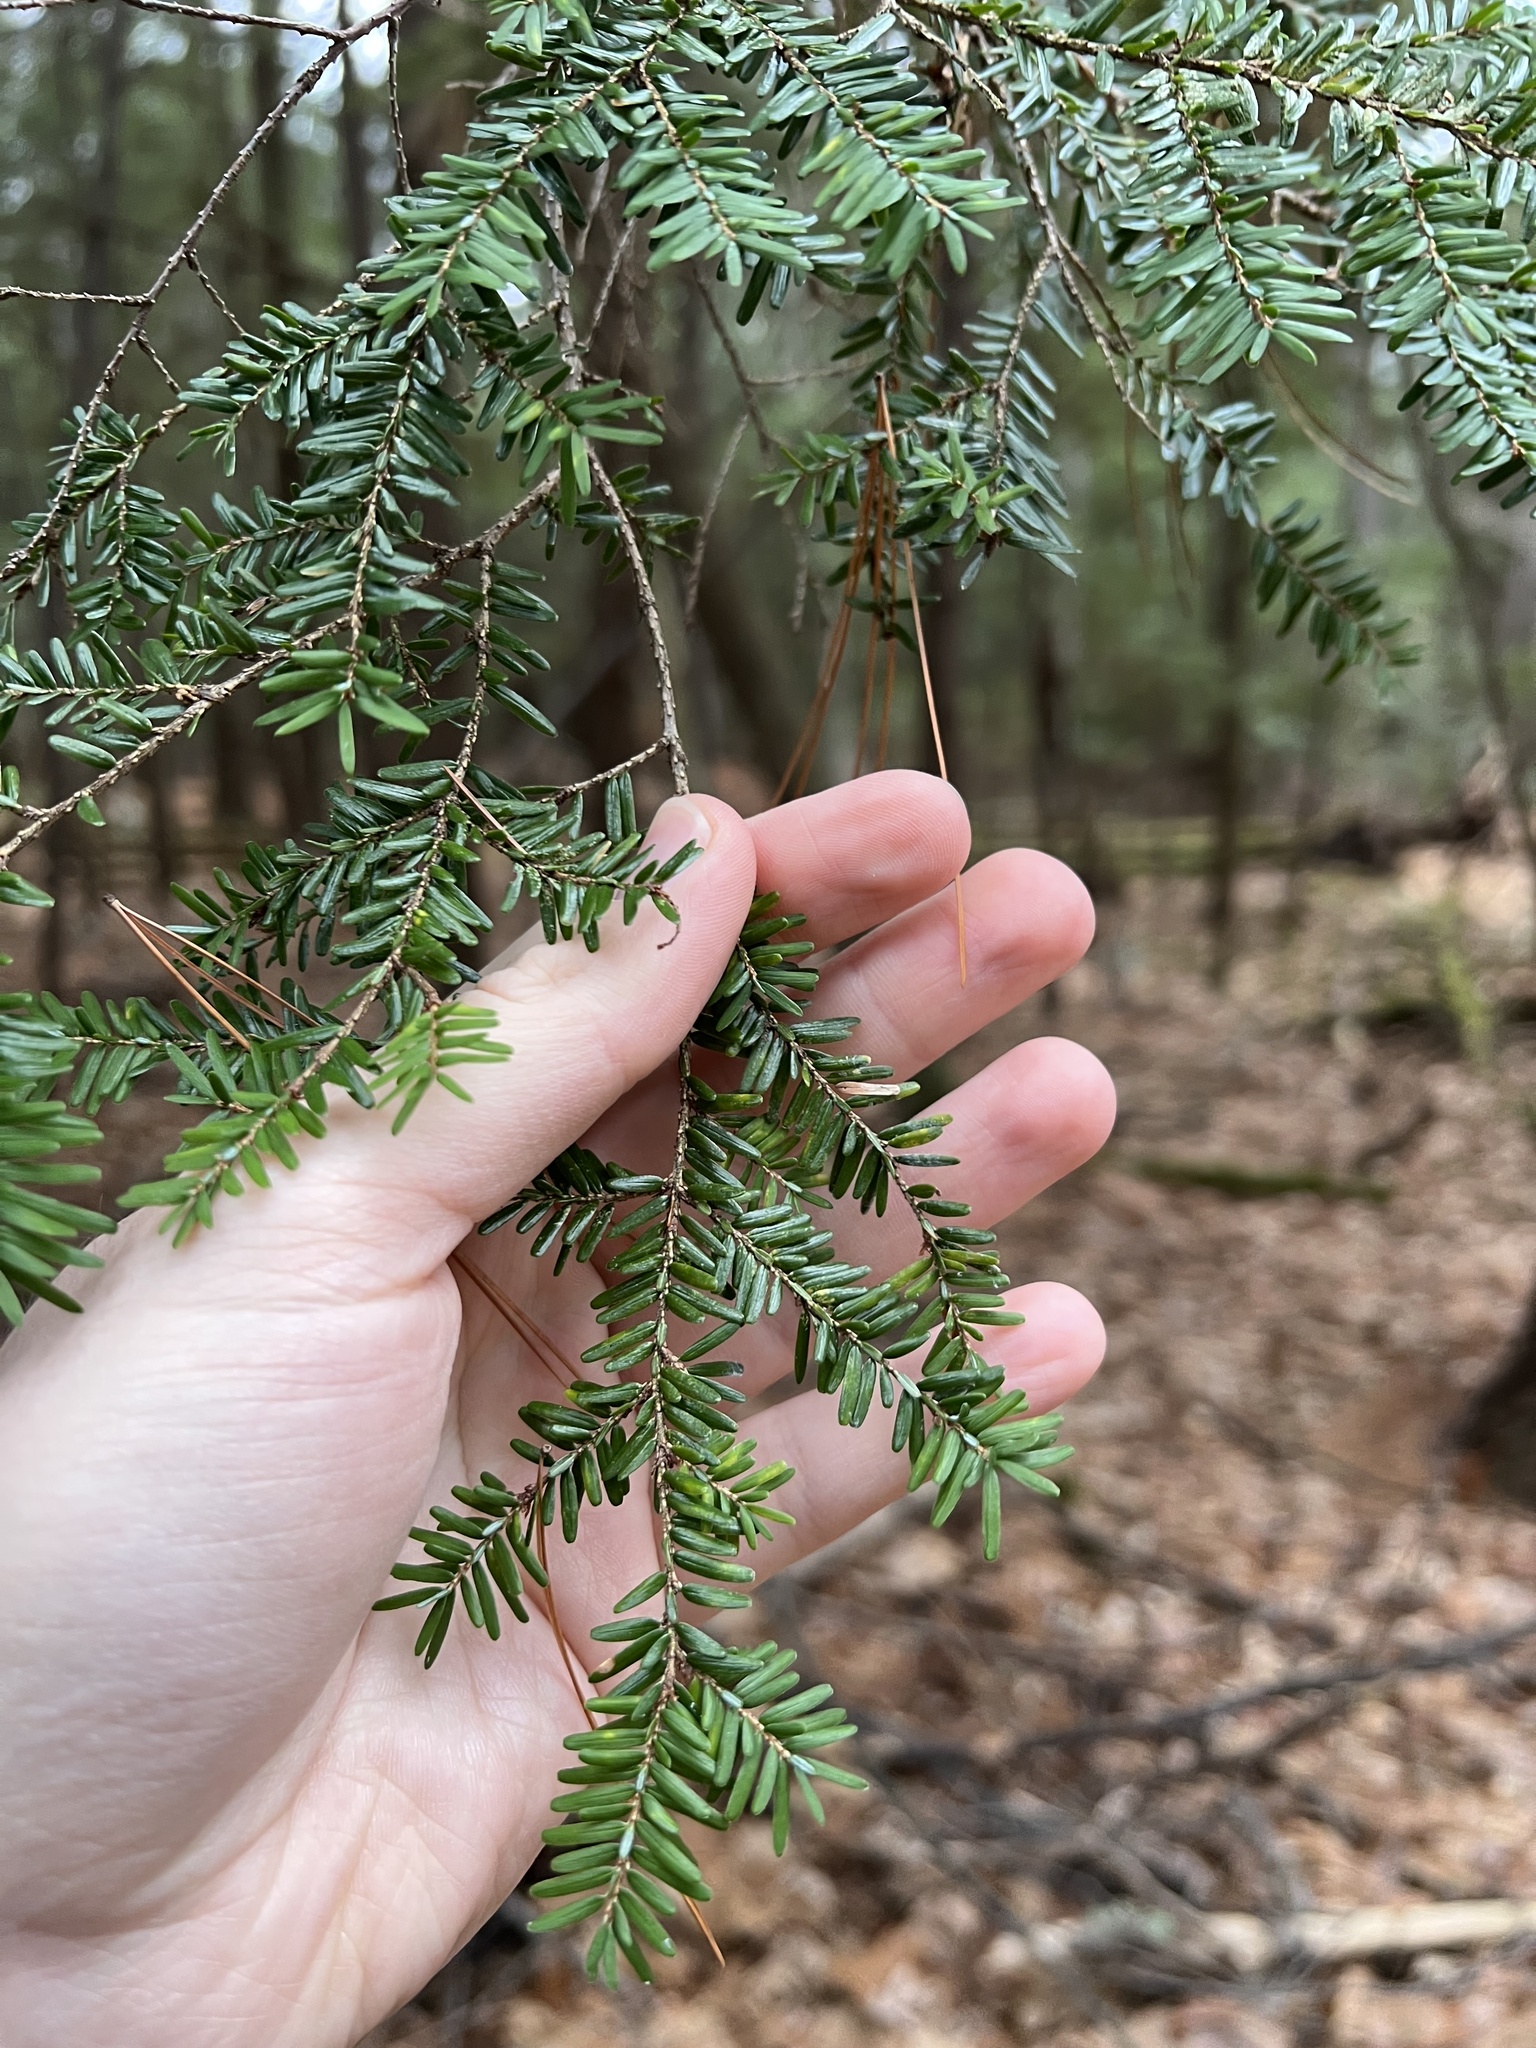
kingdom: Plantae
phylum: Tracheophyta
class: Pinopsida
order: Pinales
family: Pinaceae
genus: Tsuga
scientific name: Tsuga canadensis
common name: Eastern hemlock
